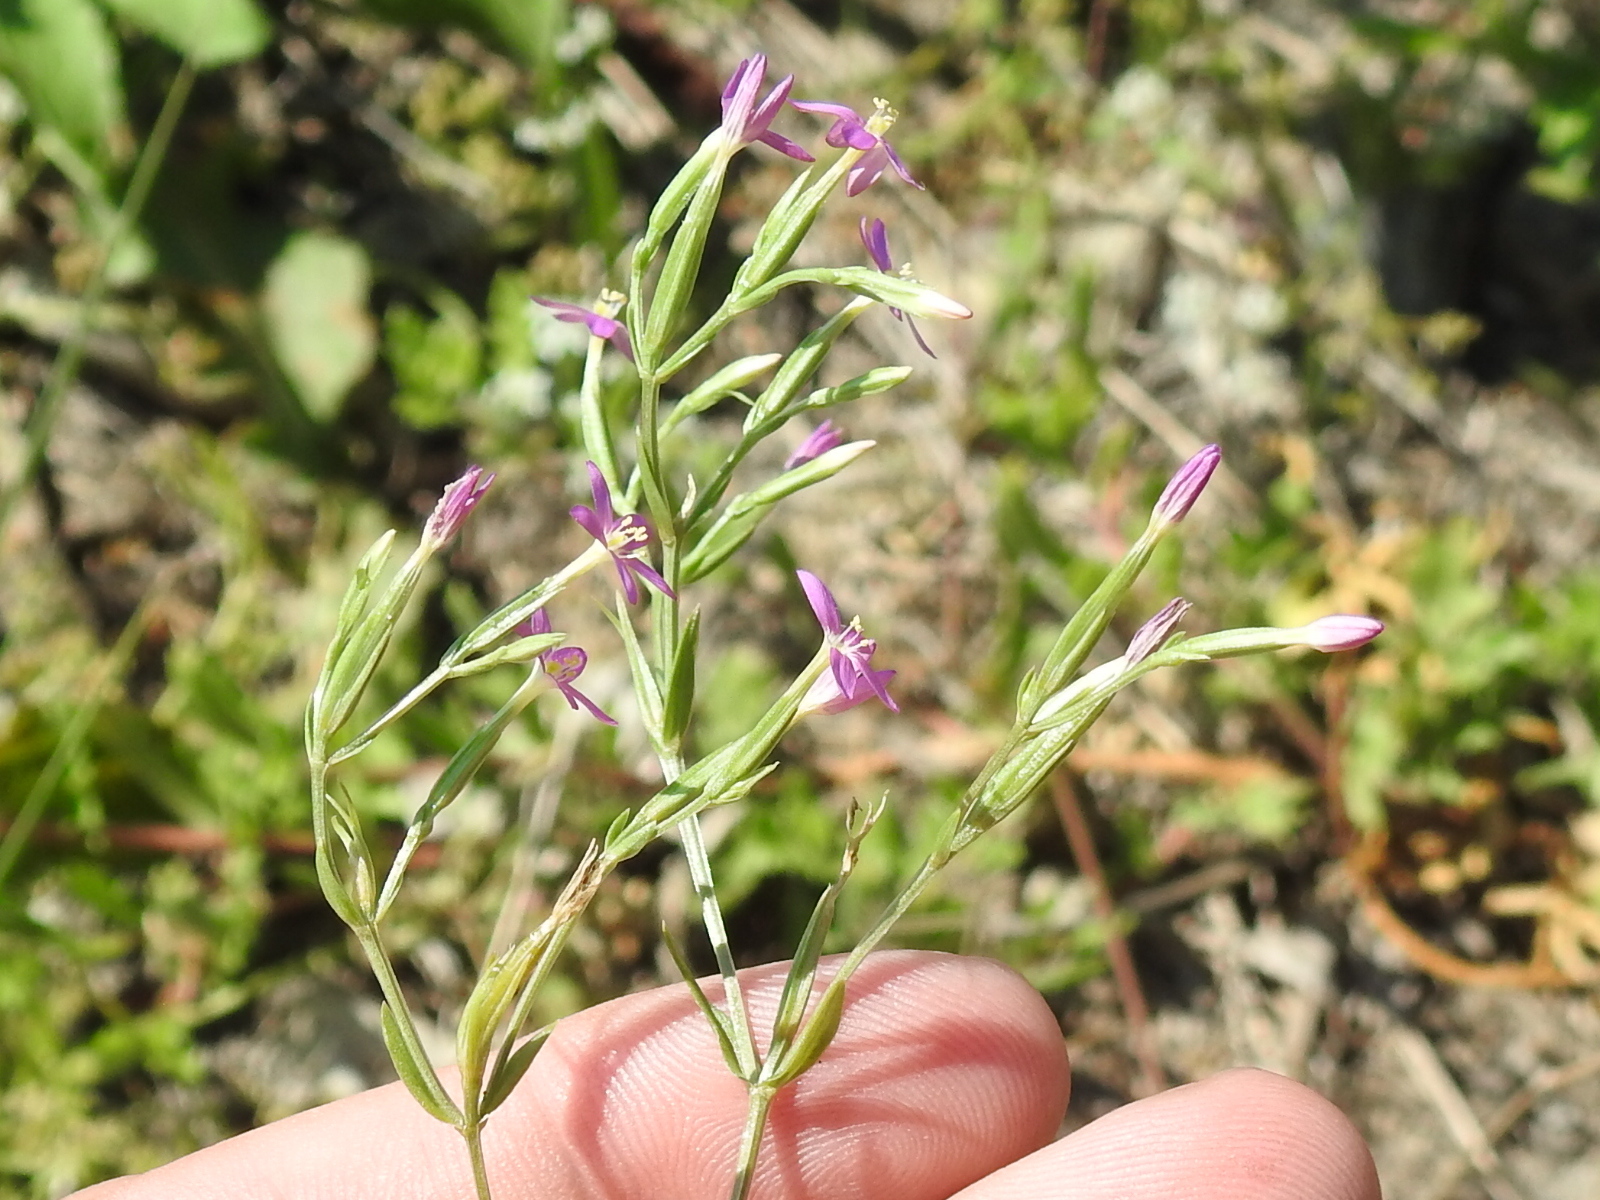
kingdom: Plantae
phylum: Tracheophyta
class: Magnoliopsida
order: Gentianales
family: Gentianaceae
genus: Centaurium
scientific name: Centaurium pulchellum
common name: Lesser centaury
